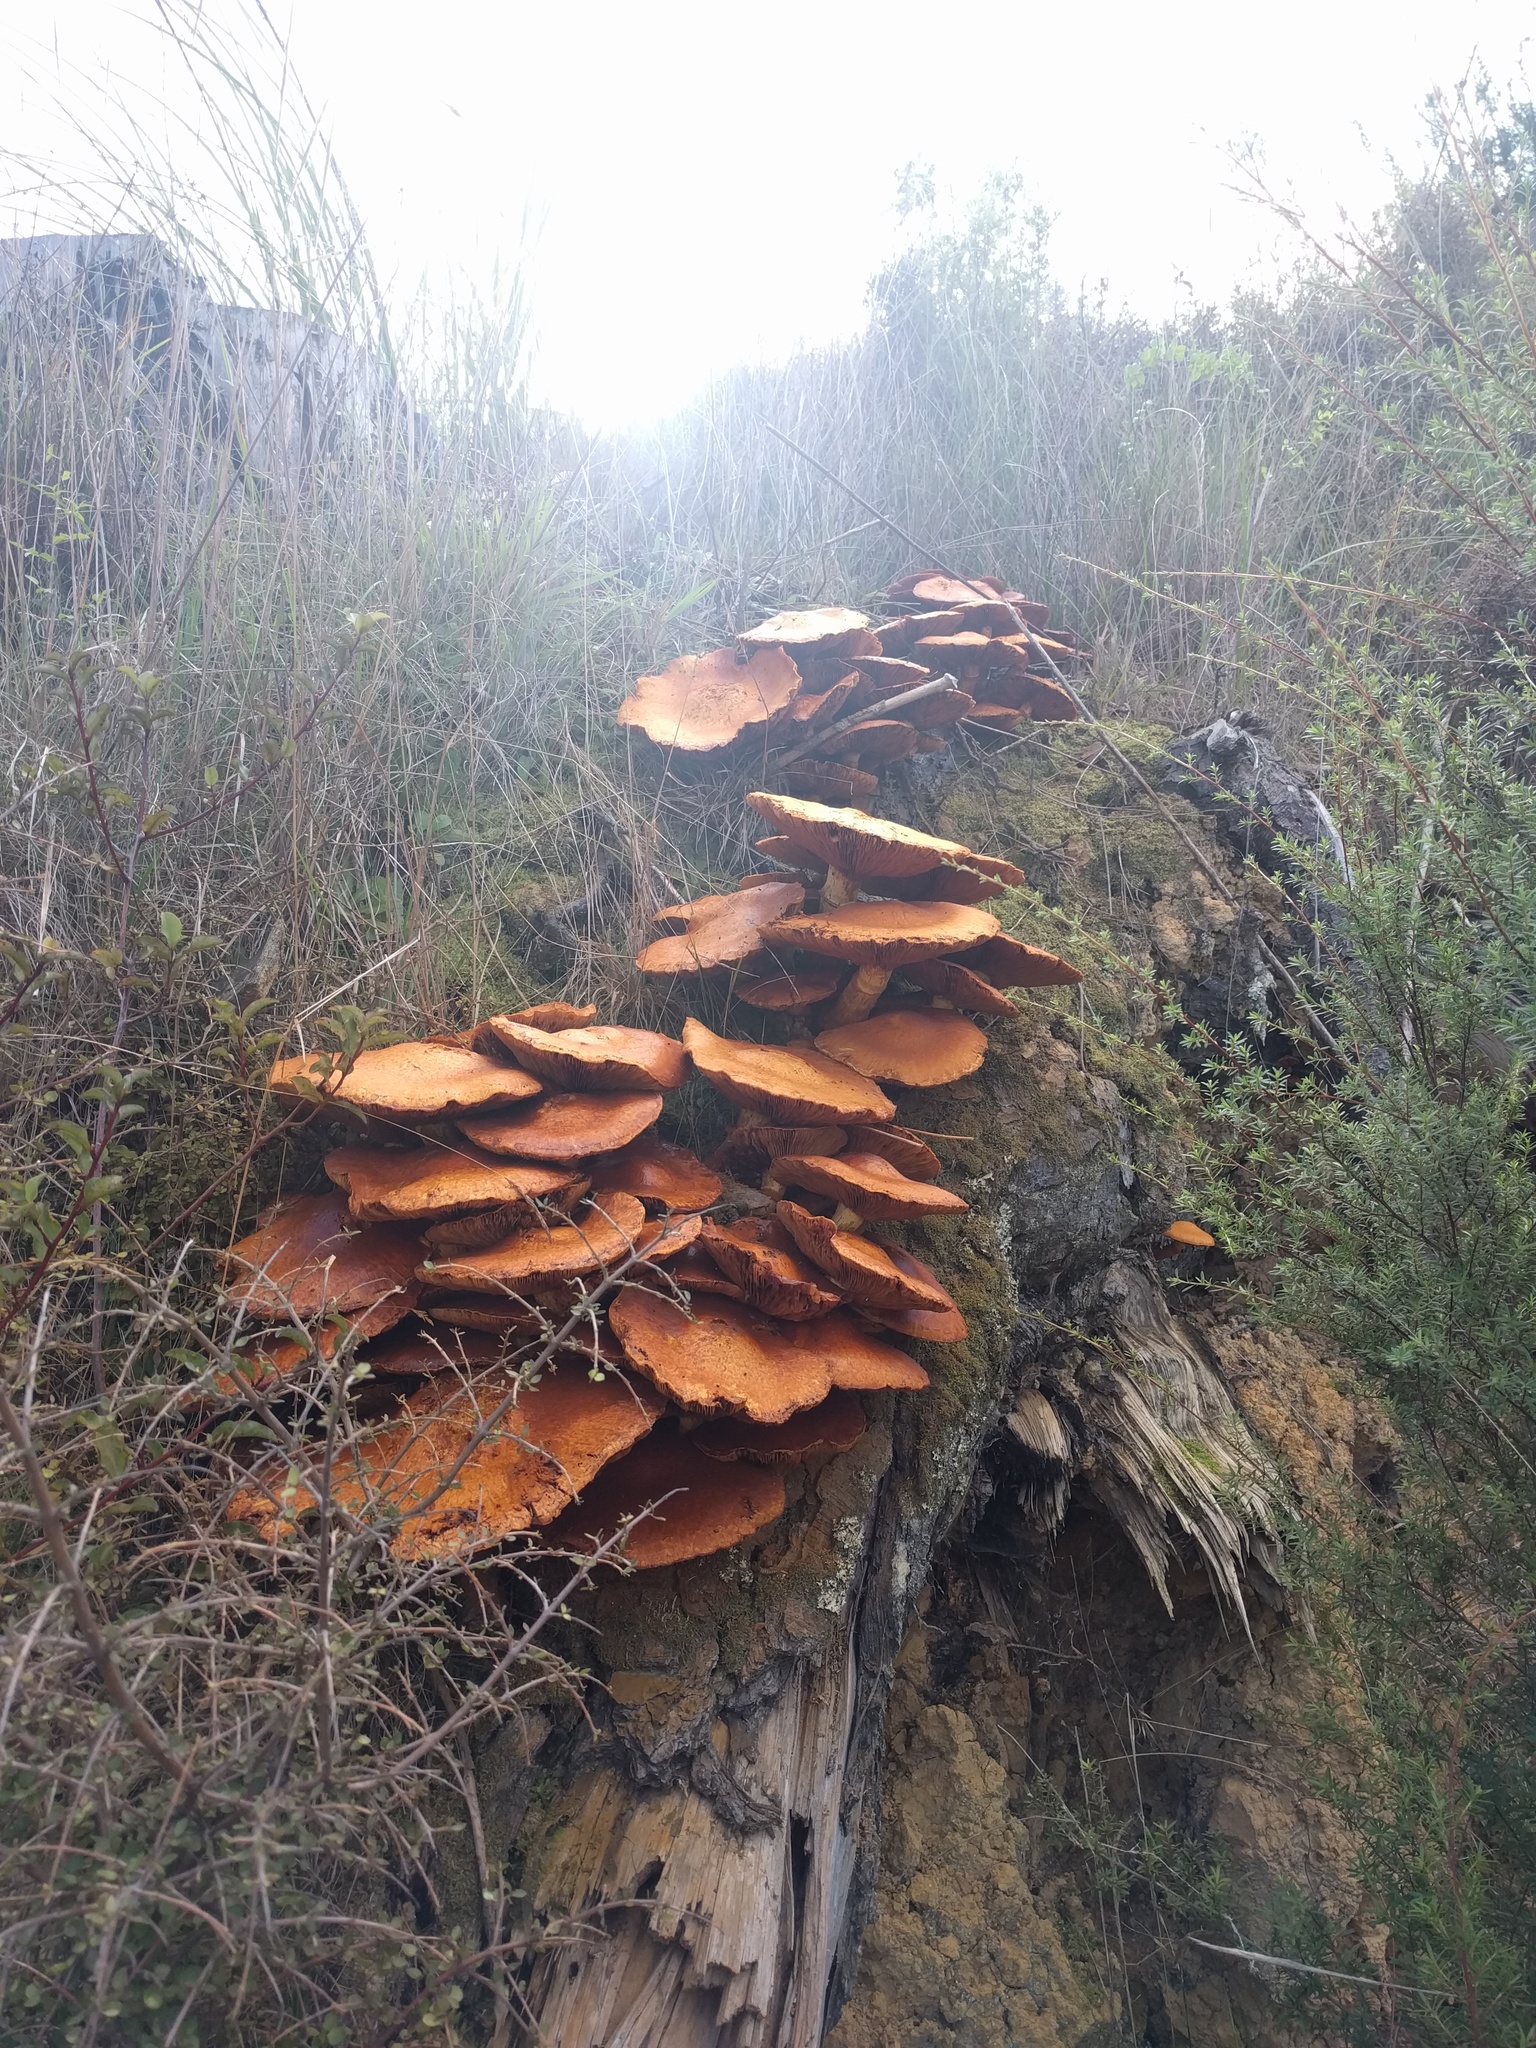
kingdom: Fungi
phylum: Basidiomycota
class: Agaricomycetes
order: Agaricales
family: Hymenogastraceae
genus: Gymnopilus
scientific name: Gymnopilus junonius
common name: Spectacular rustgill
